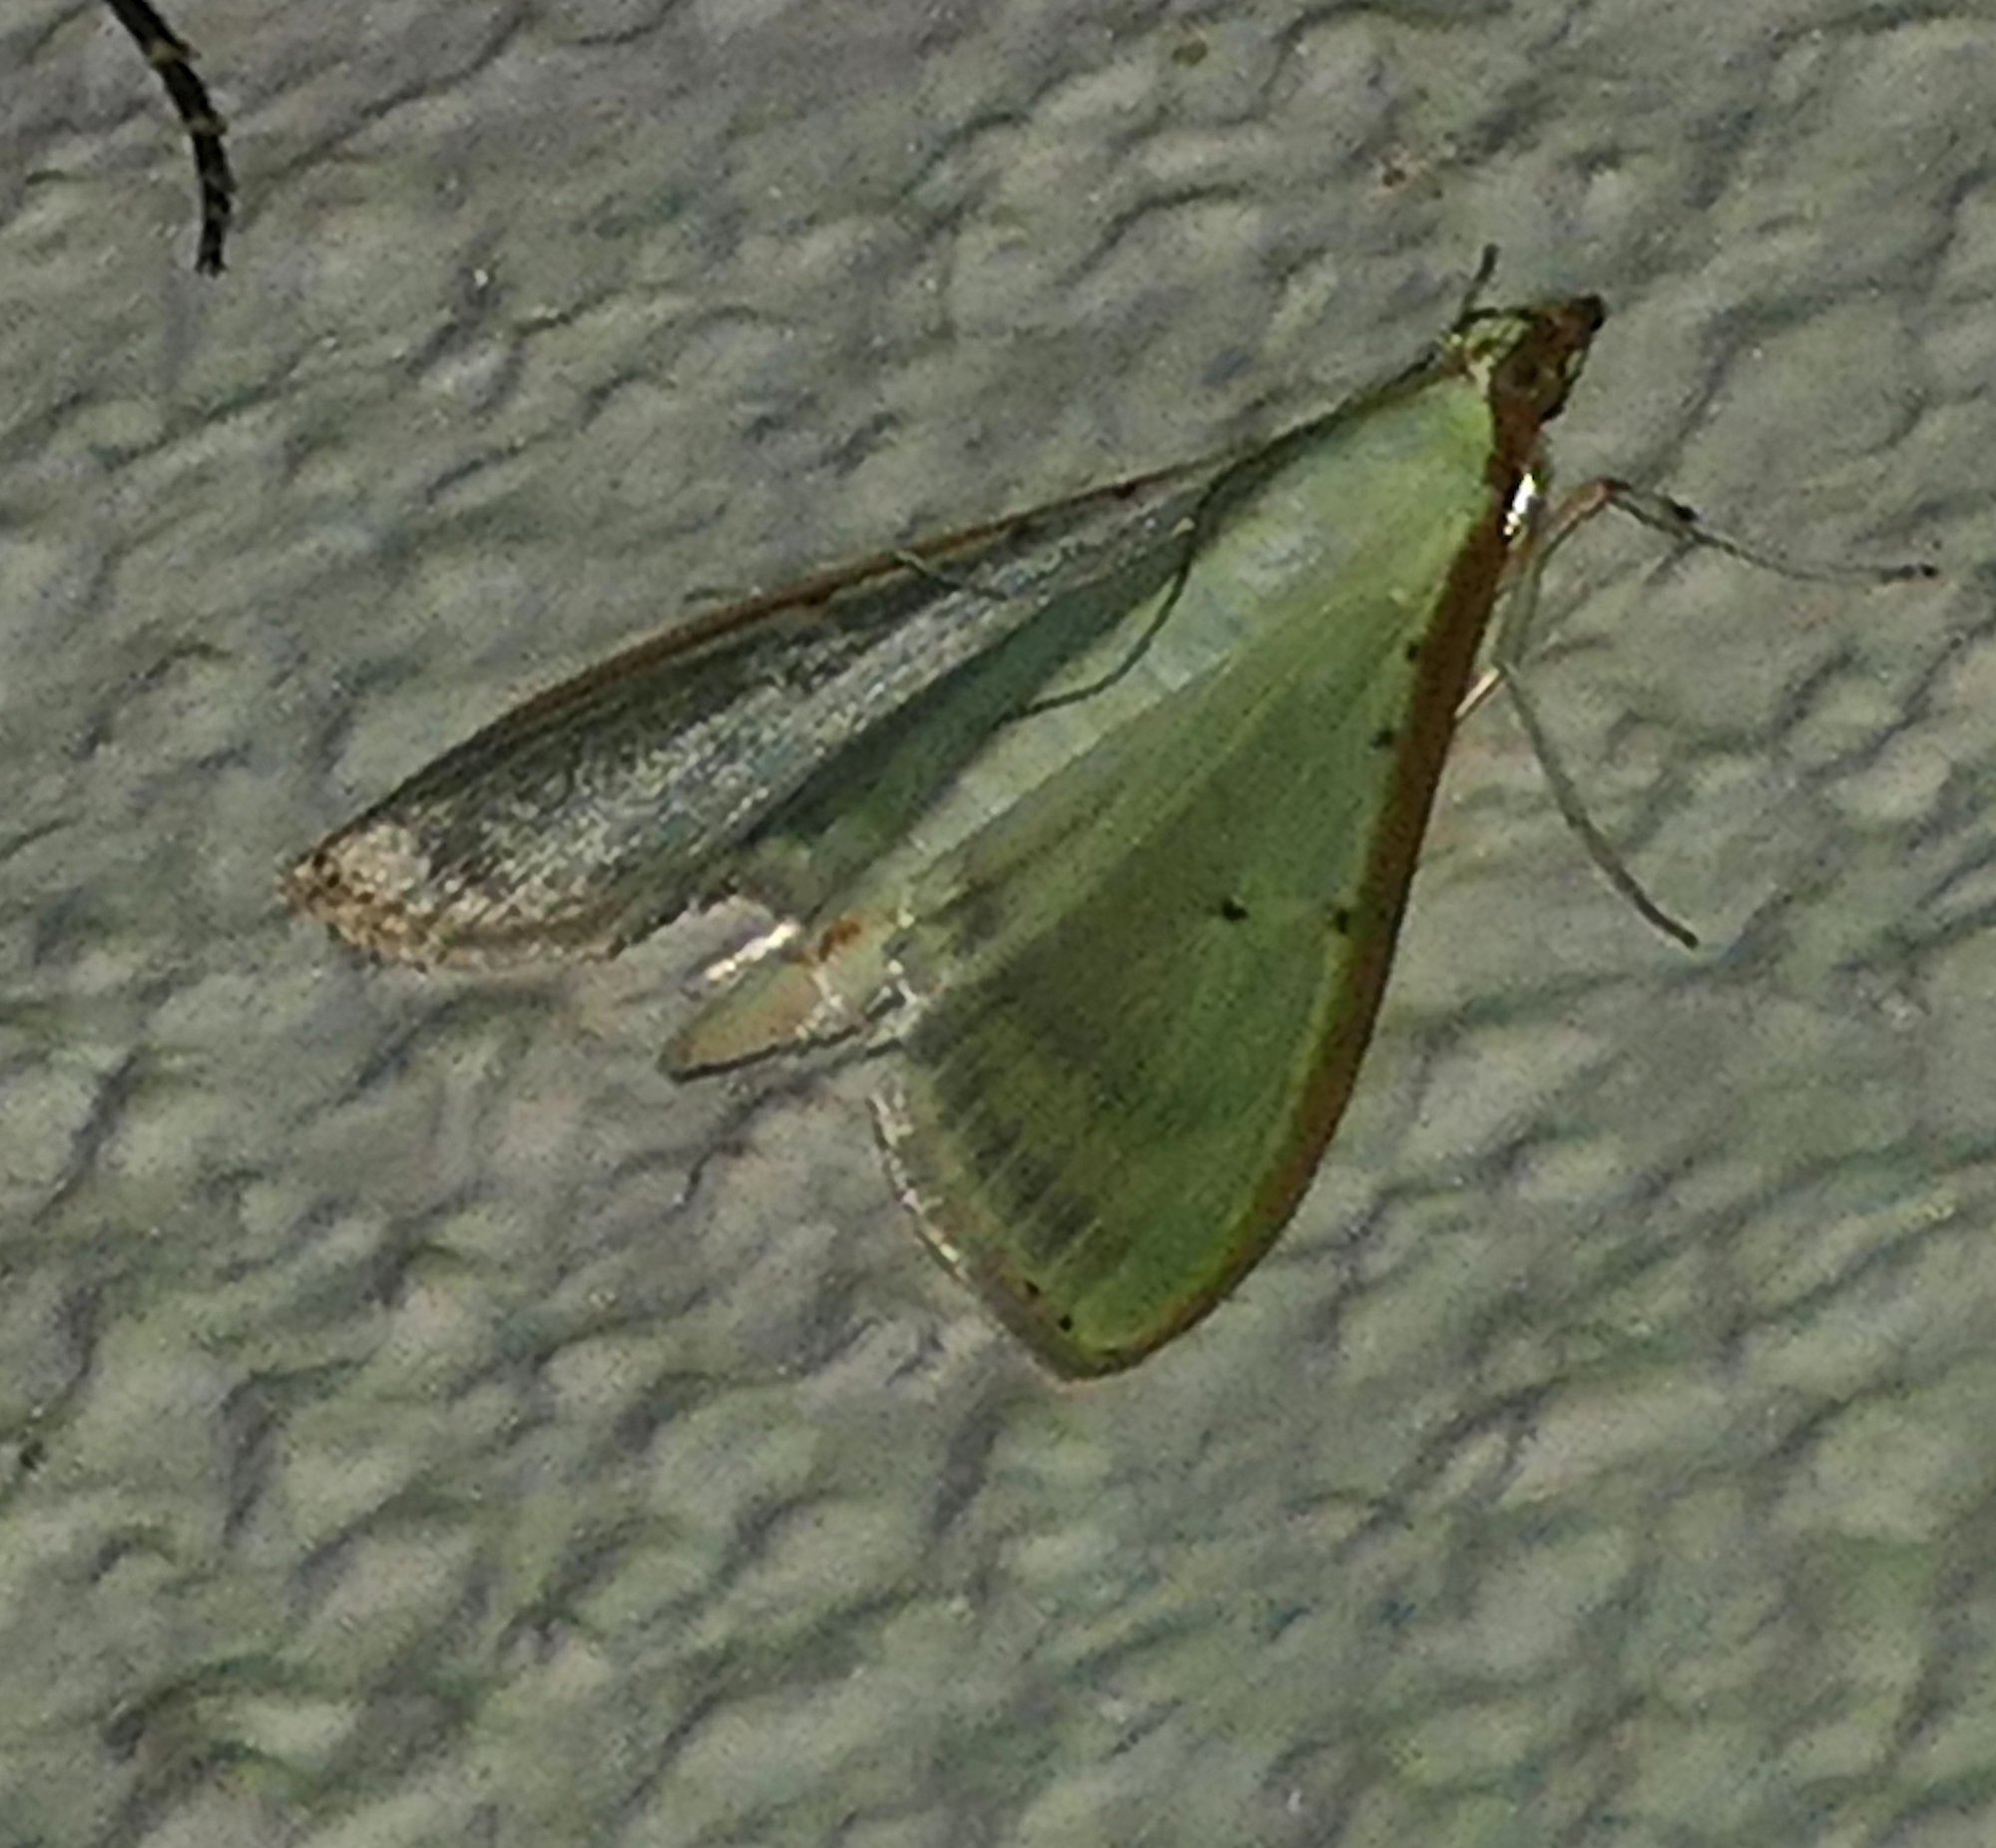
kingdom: Animalia
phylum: Arthropoda
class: Insecta
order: Lepidoptera
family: Crambidae
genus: Palpita
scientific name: Palpita quadristigmalis
